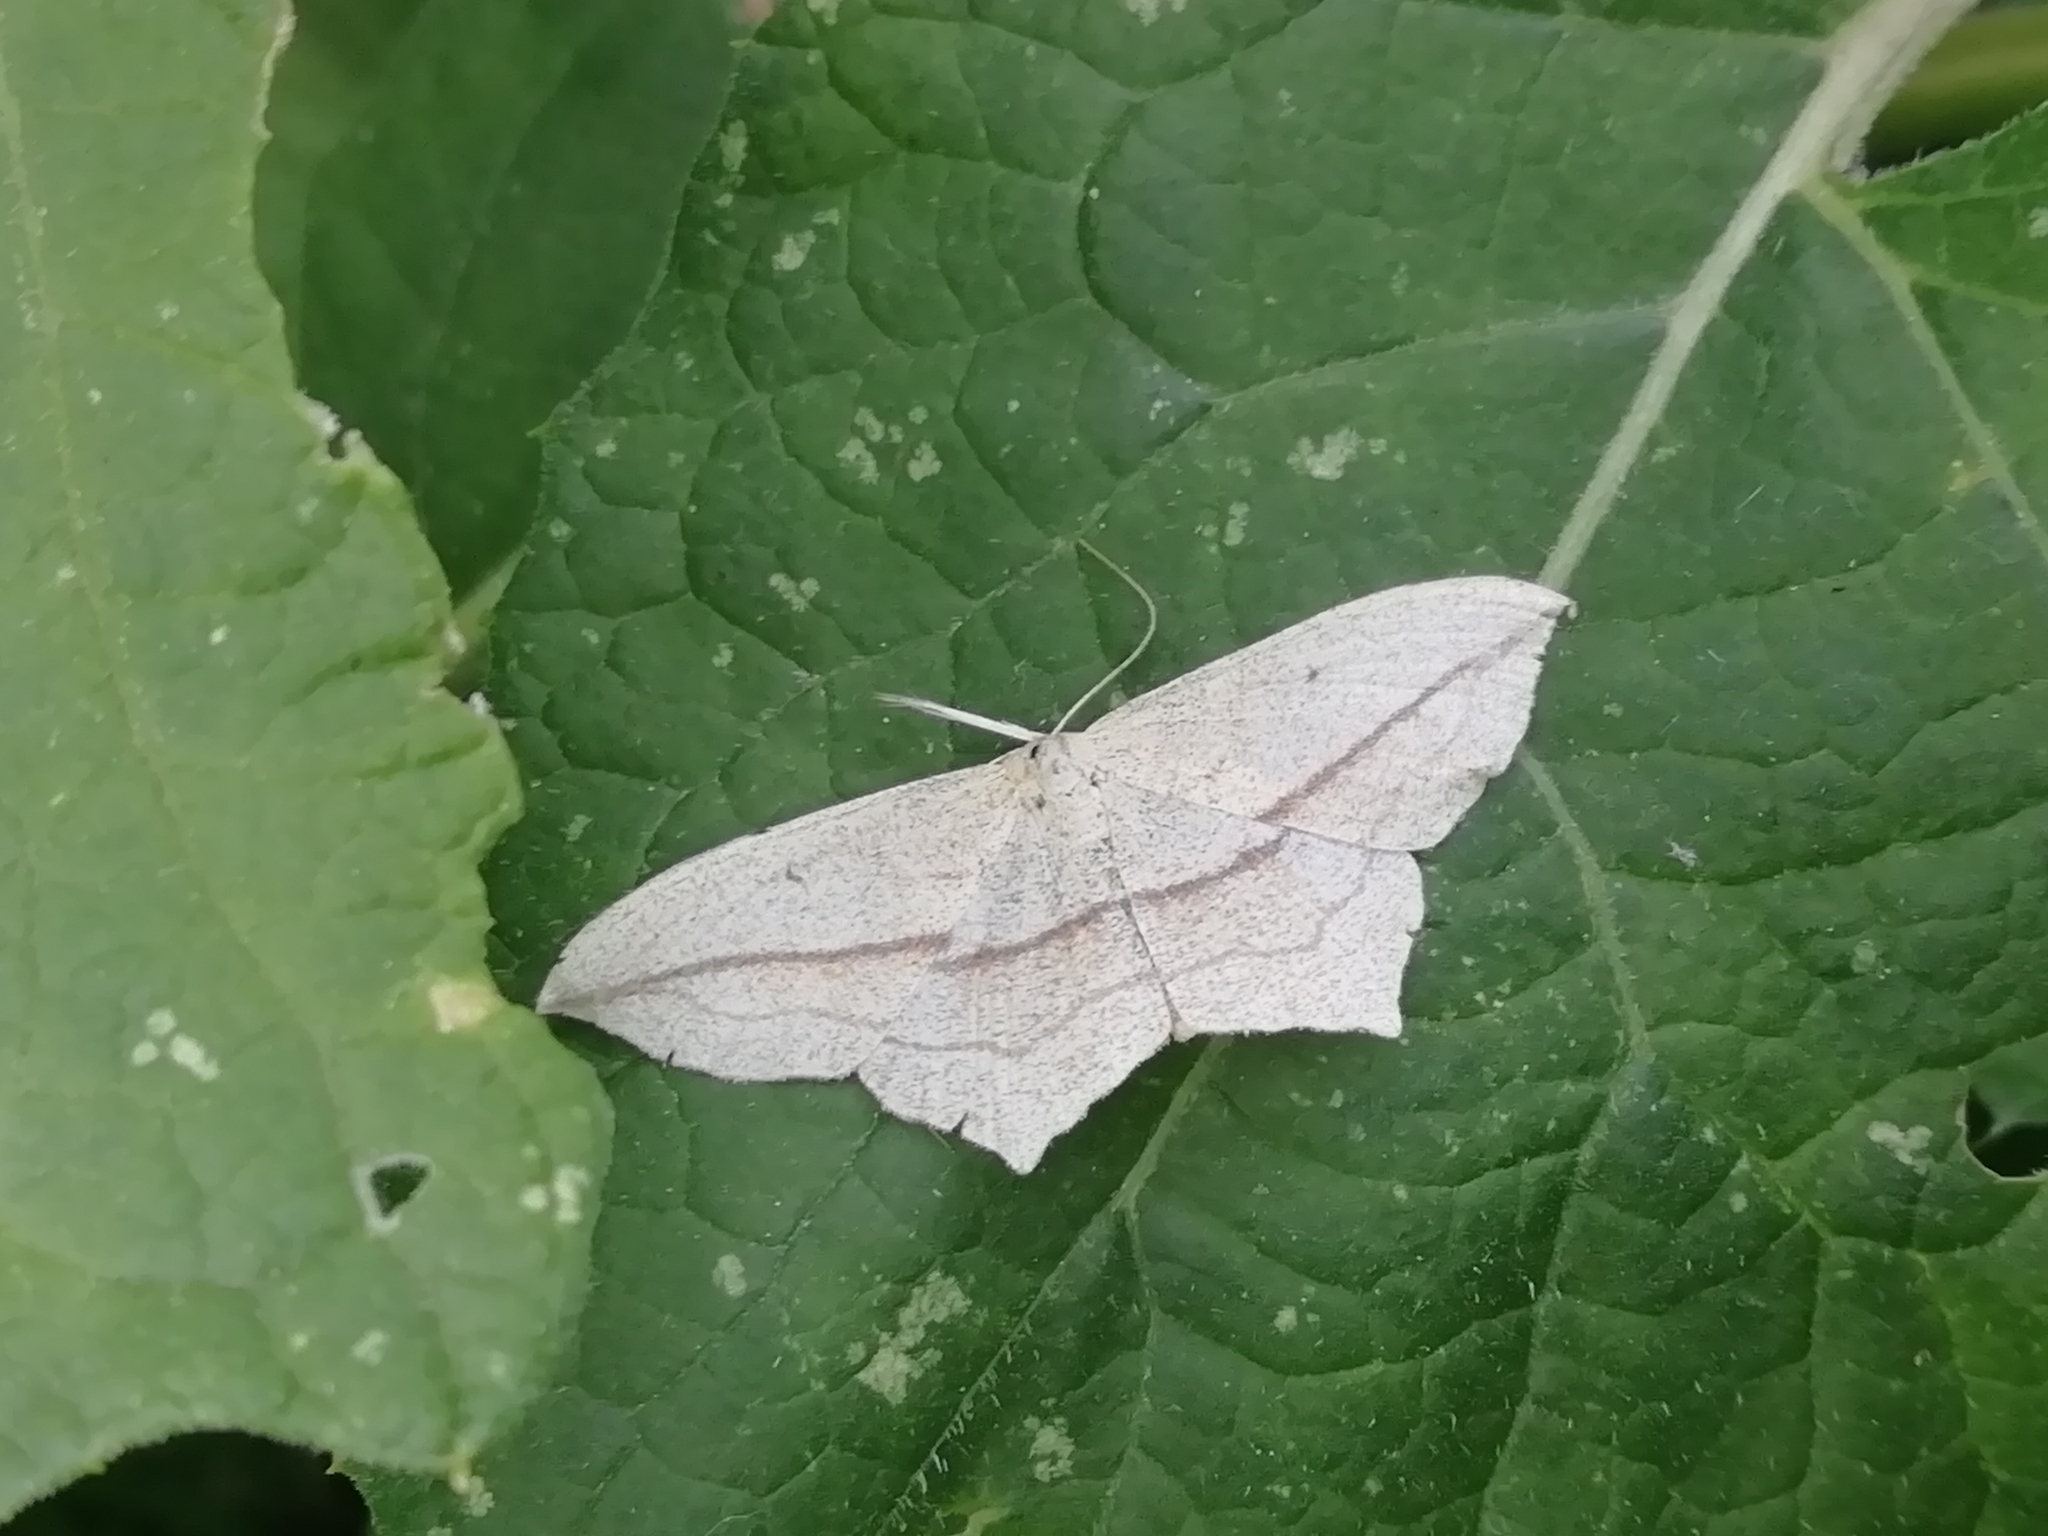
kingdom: Animalia
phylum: Arthropoda
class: Insecta
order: Lepidoptera
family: Geometridae
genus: Timandra
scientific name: Timandra comae
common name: Blood-vein
